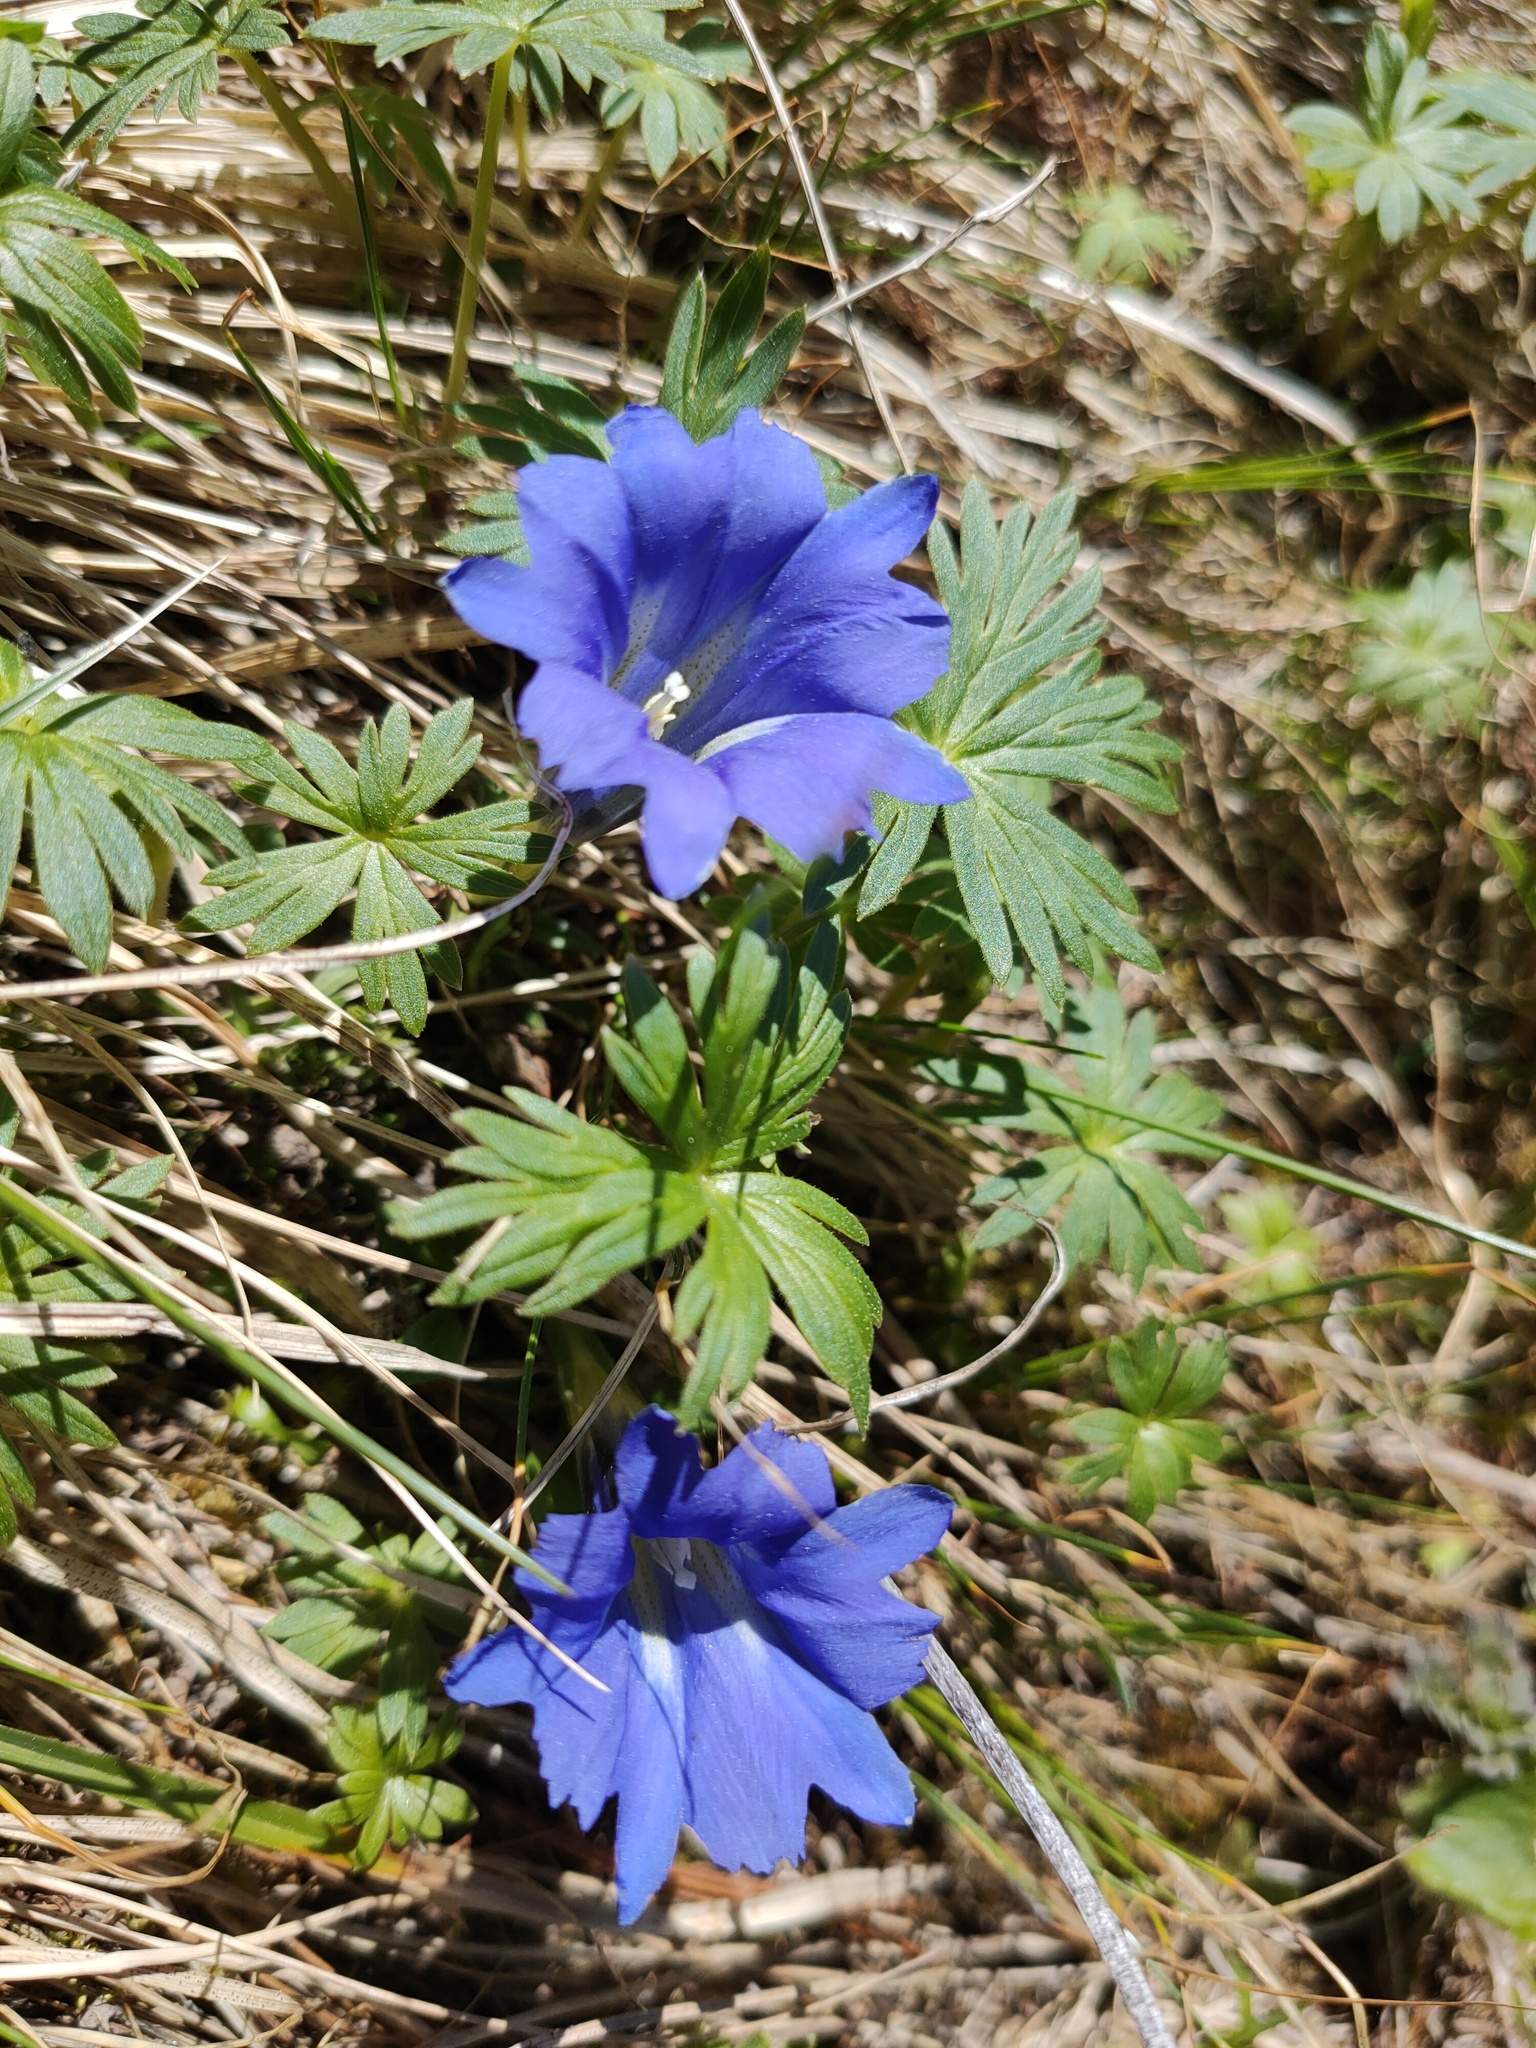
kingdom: Plantae
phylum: Tracheophyta
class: Magnoliopsida
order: Gentianales
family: Gentianaceae
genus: Gentiana
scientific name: Gentiana grandiflora
